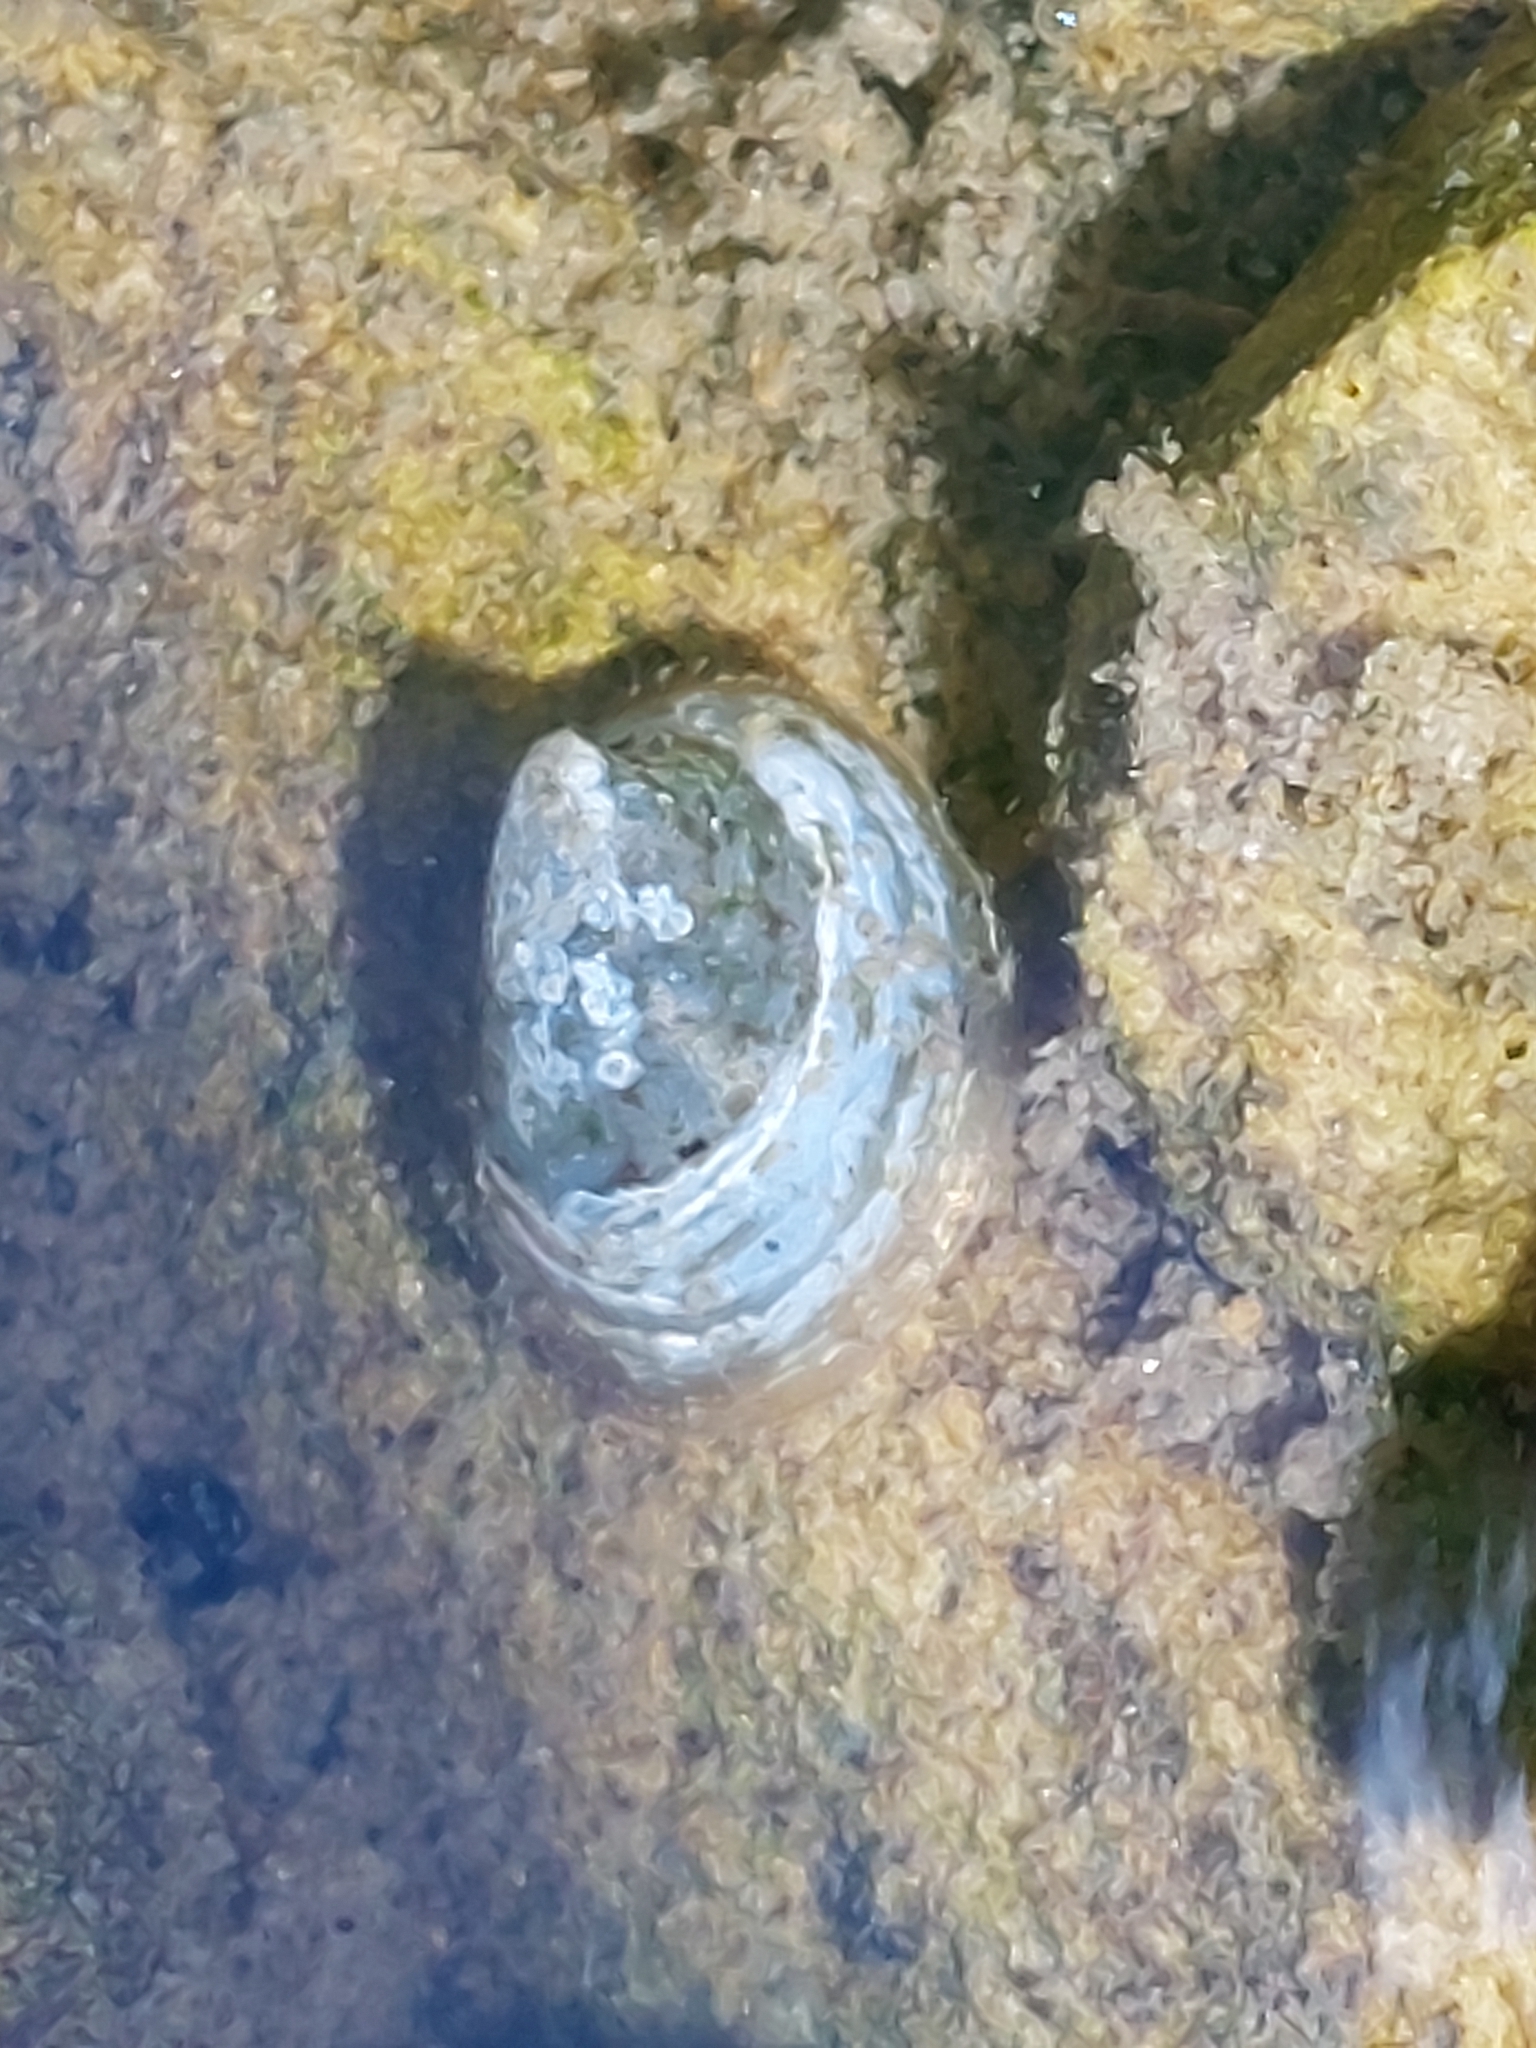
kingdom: Animalia
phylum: Mollusca
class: Gastropoda
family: Planorbidae
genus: Ancylus
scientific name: Ancylus fluviatilis
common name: River limpet
